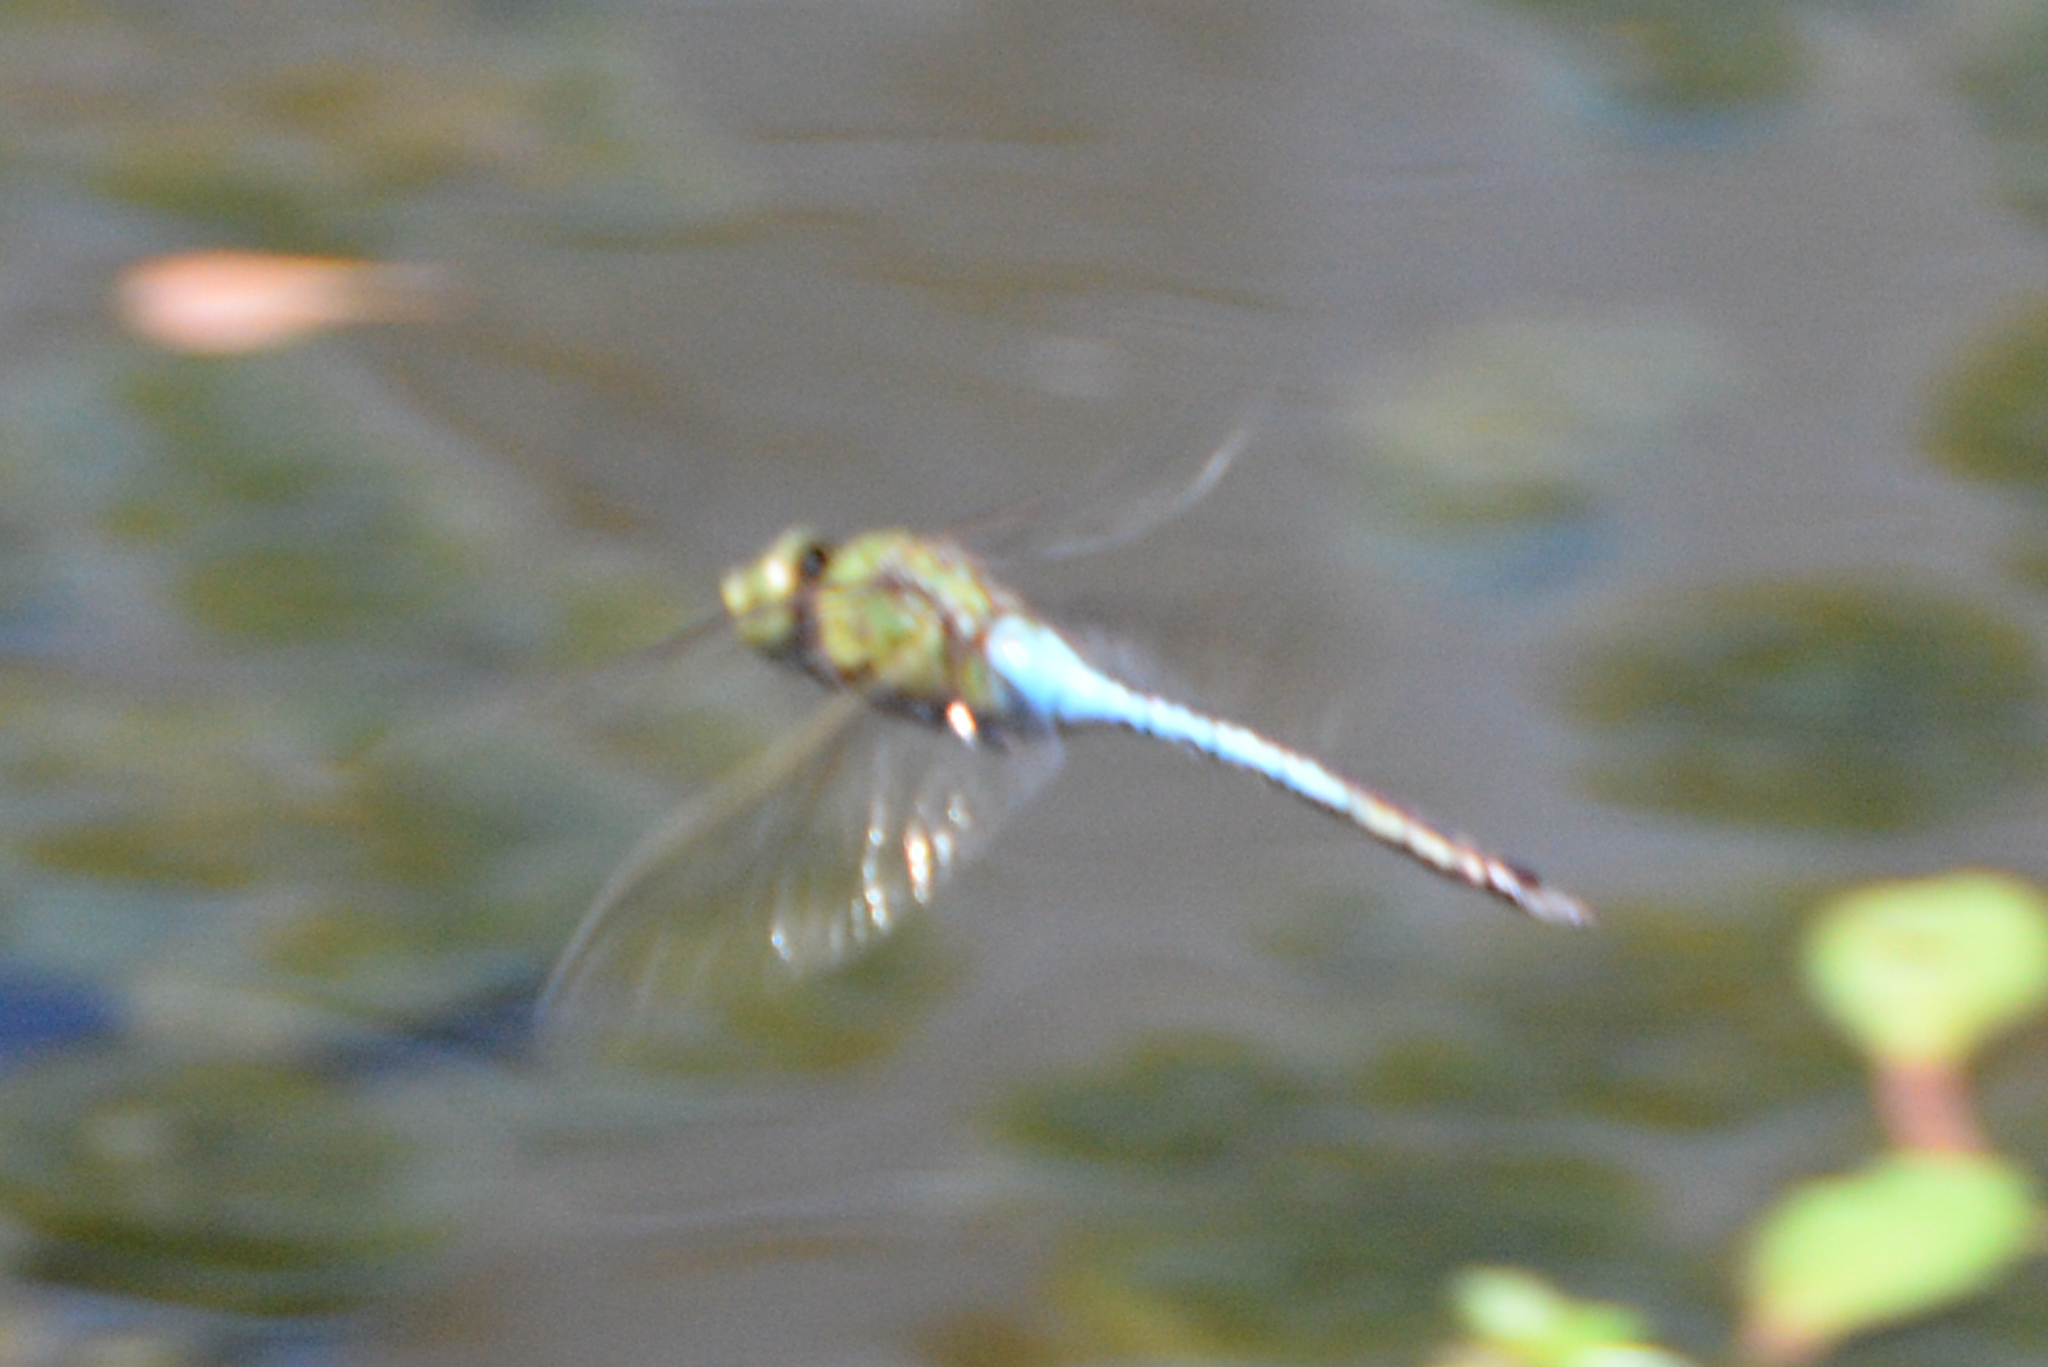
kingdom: Animalia
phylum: Arthropoda
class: Insecta
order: Odonata
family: Aeshnidae
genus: Anax
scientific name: Anax junius
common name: Common green darner
